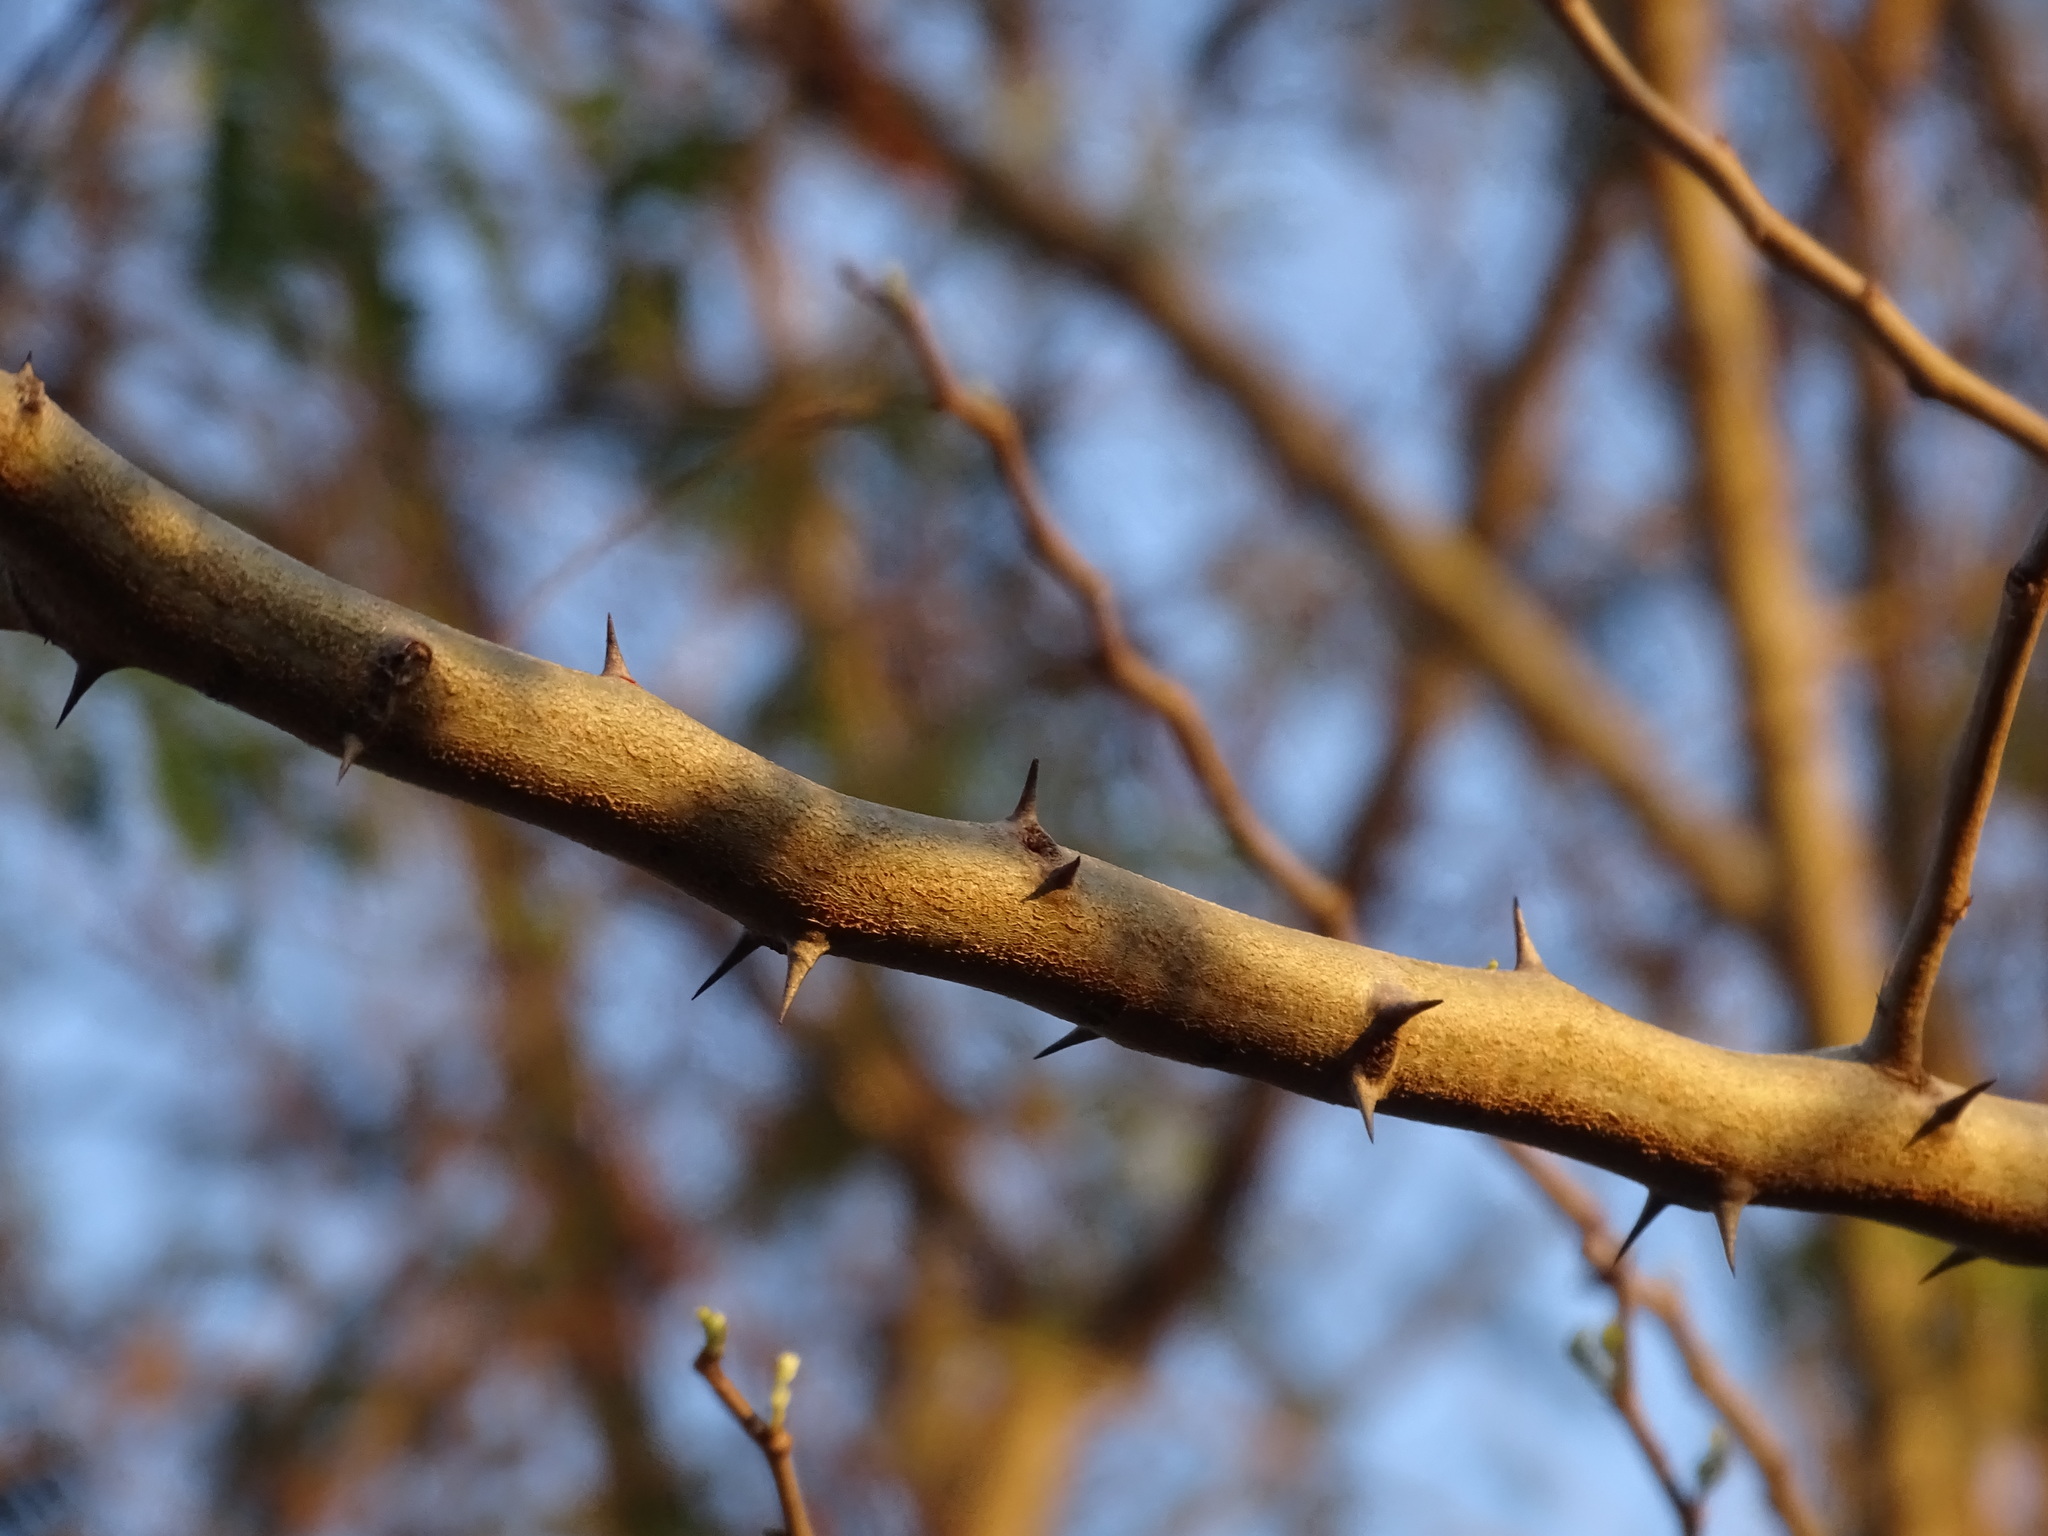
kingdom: Plantae
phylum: Tracheophyta
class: Magnoliopsida
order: Fabales
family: Fabaceae
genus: Havardia
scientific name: Havardia albicans
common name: Huisache
